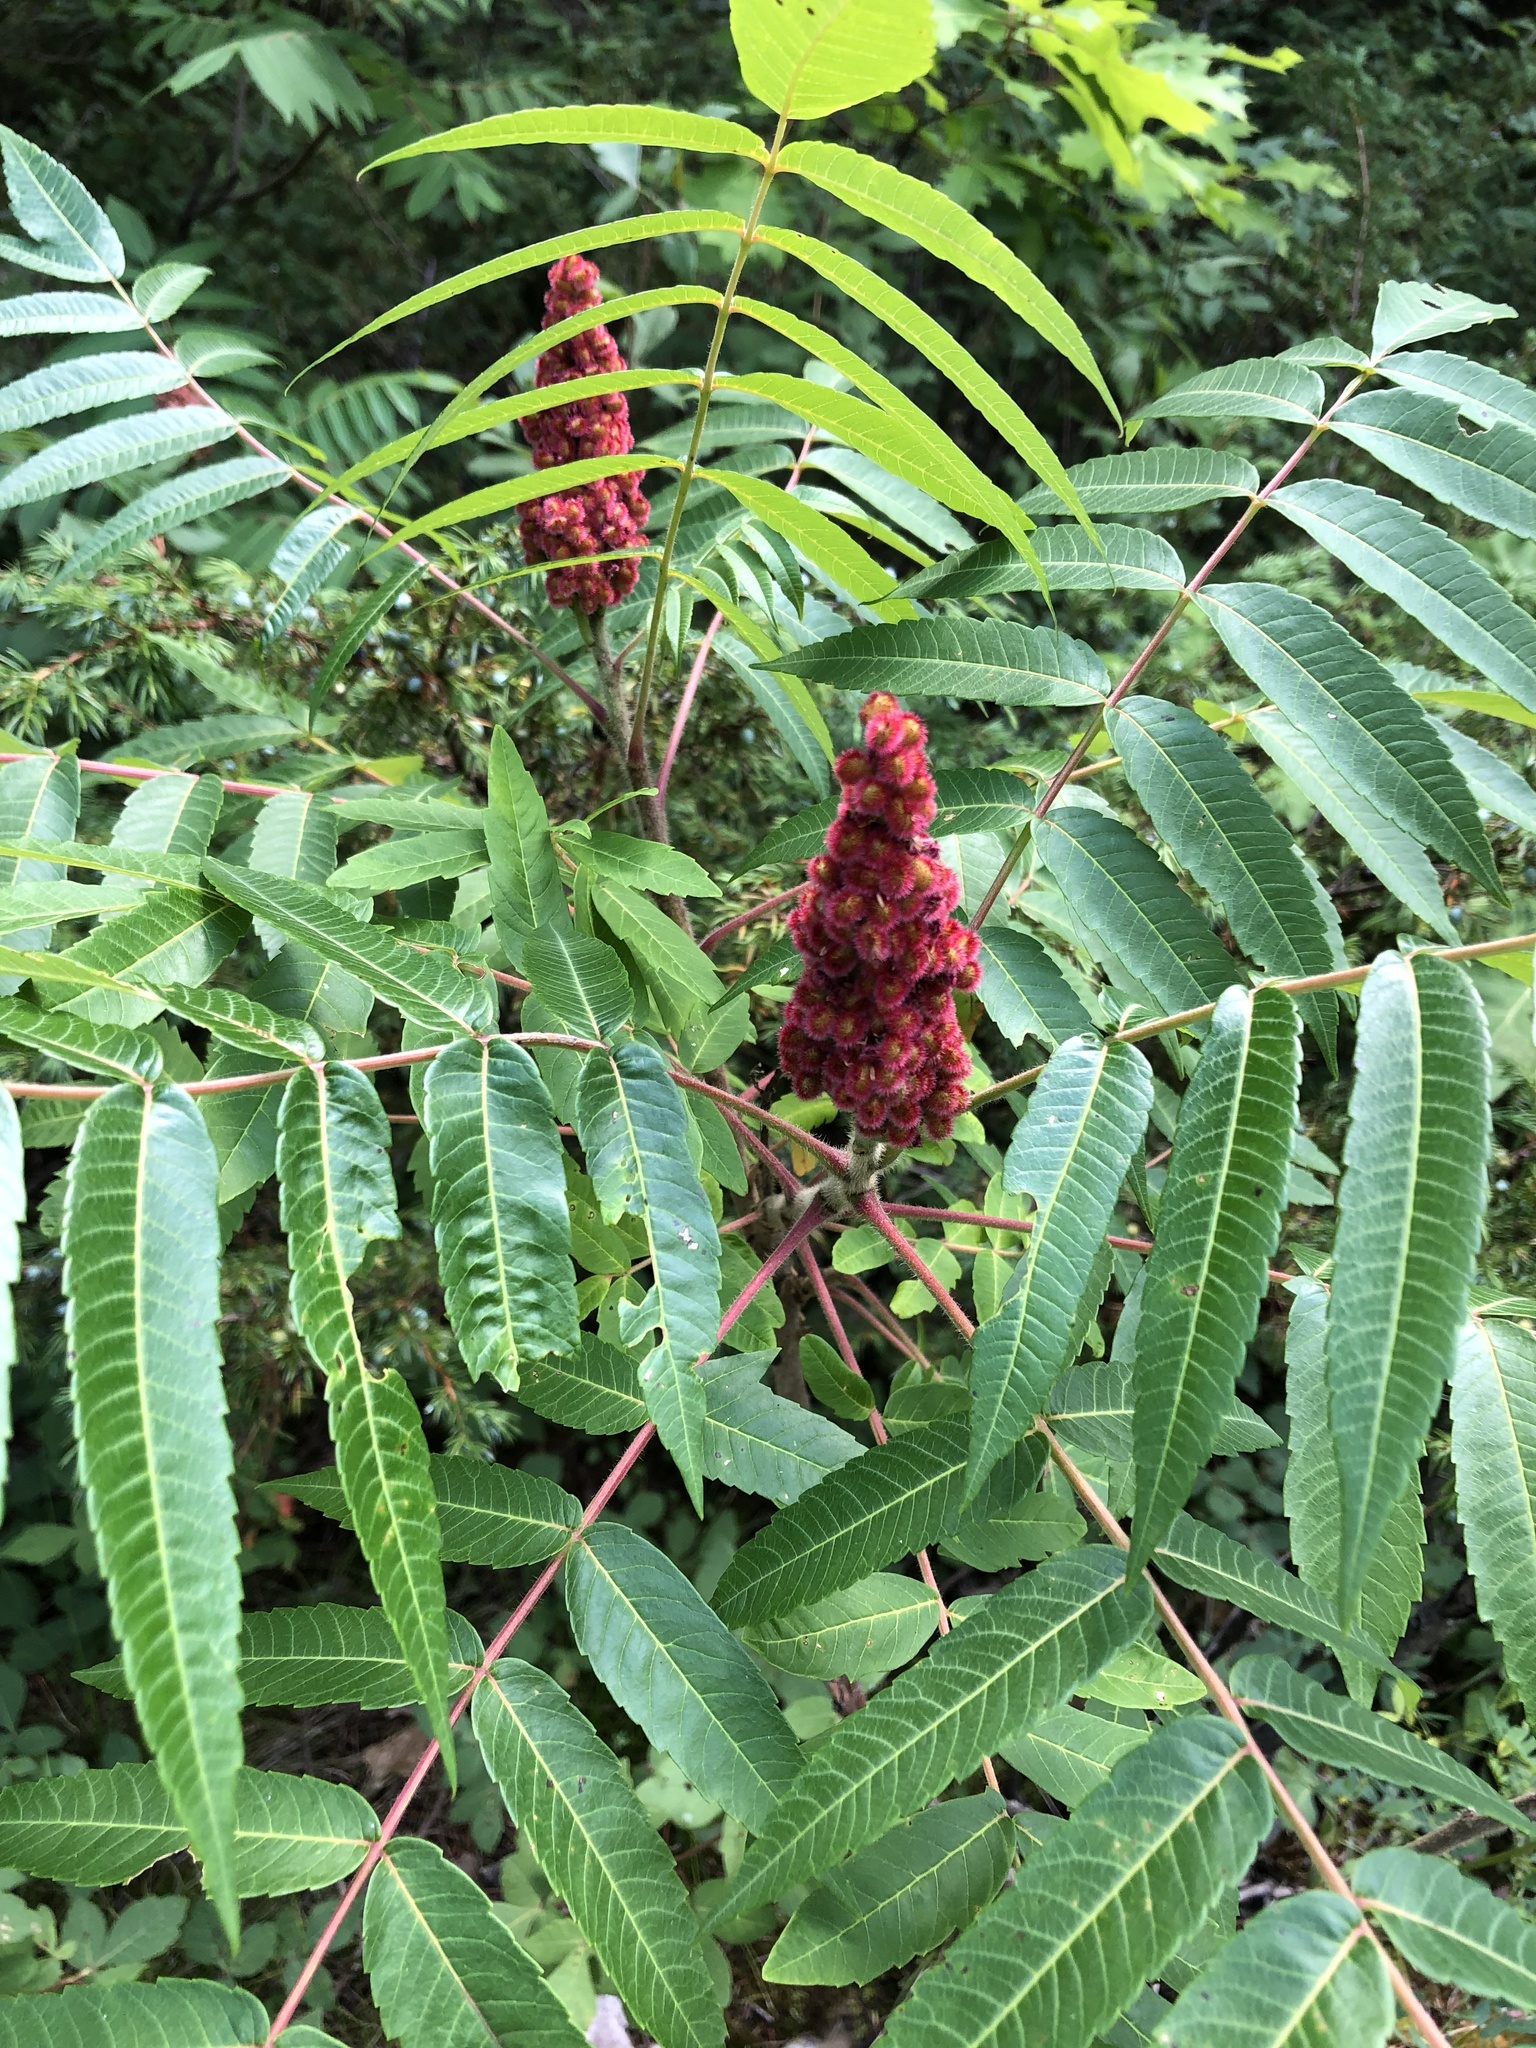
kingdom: Plantae
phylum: Tracheophyta
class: Magnoliopsida
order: Sapindales
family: Anacardiaceae
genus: Rhus
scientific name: Rhus typhina
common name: Staghorn sumac
